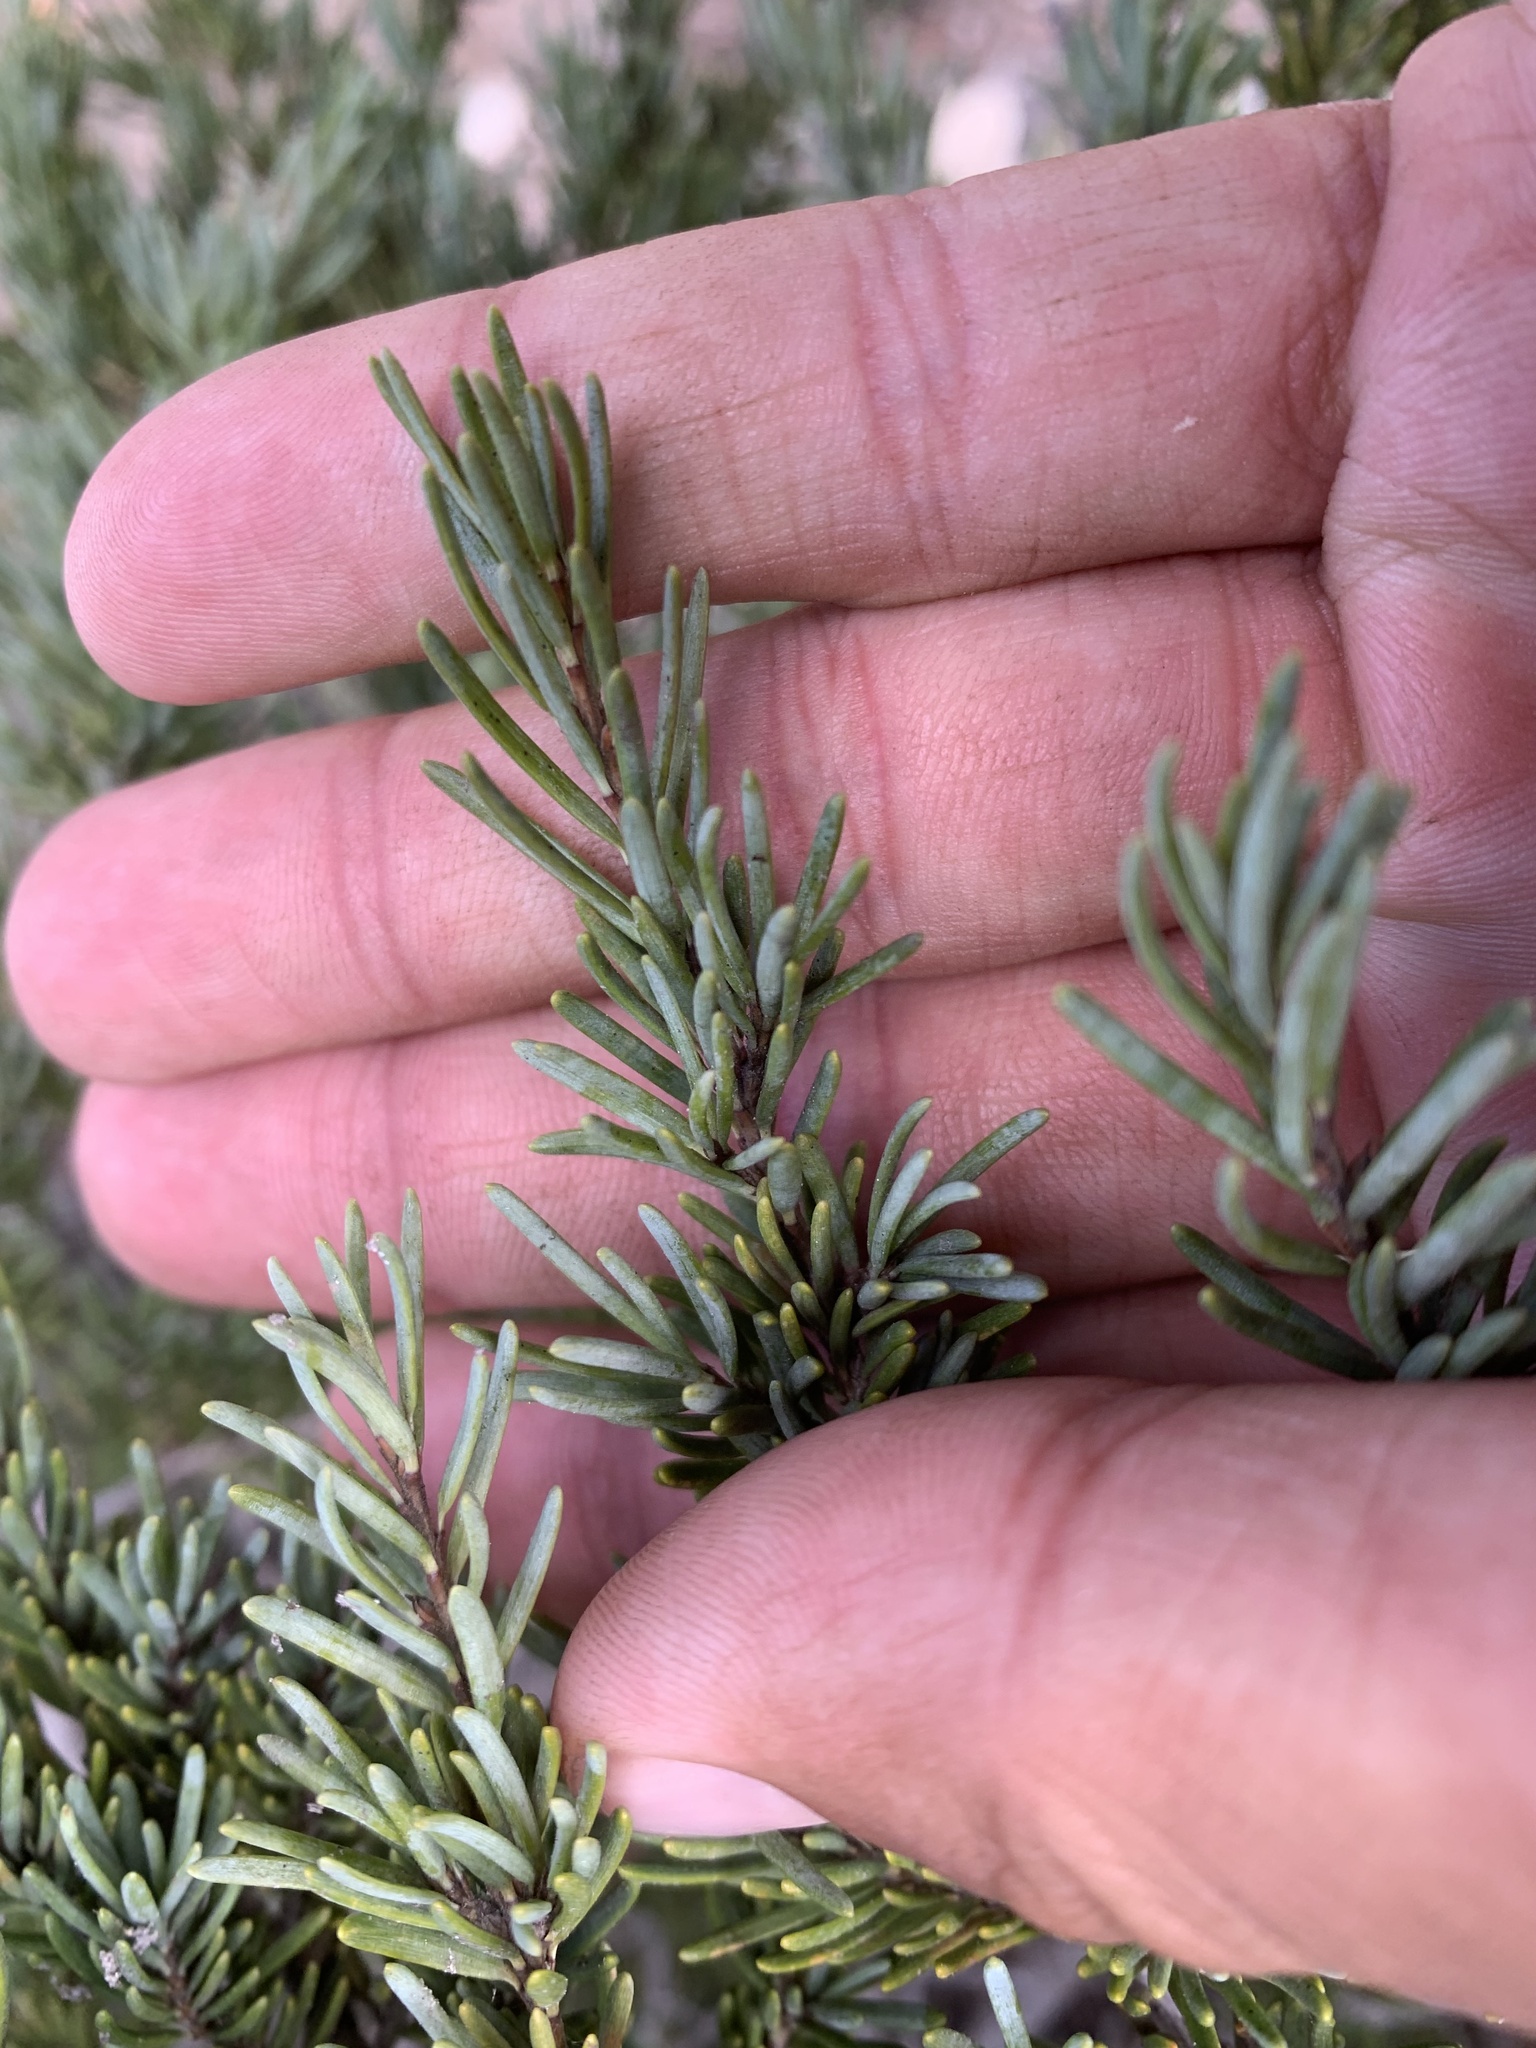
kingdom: Plantae
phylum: Tracheophyta
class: Pinopsida
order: Pinales
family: Pinaceae
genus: Tsuga
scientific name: Tsuga mertensiana
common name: Mountain hemlock
